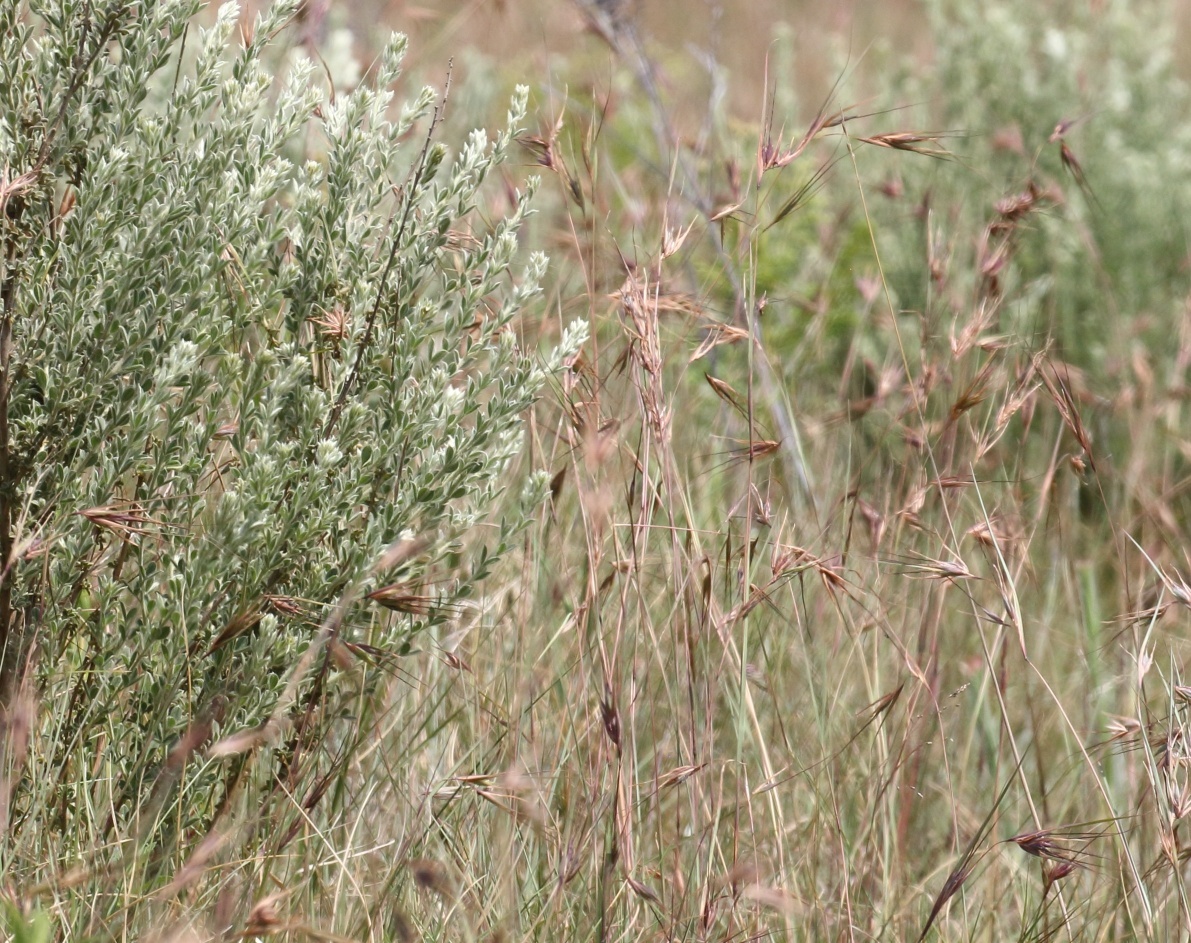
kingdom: Plantae
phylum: Tracheophyta
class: Liliopsida
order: Poales
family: Poaceae
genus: Themeda
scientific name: Themeda triandra
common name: Kangaroo grass
